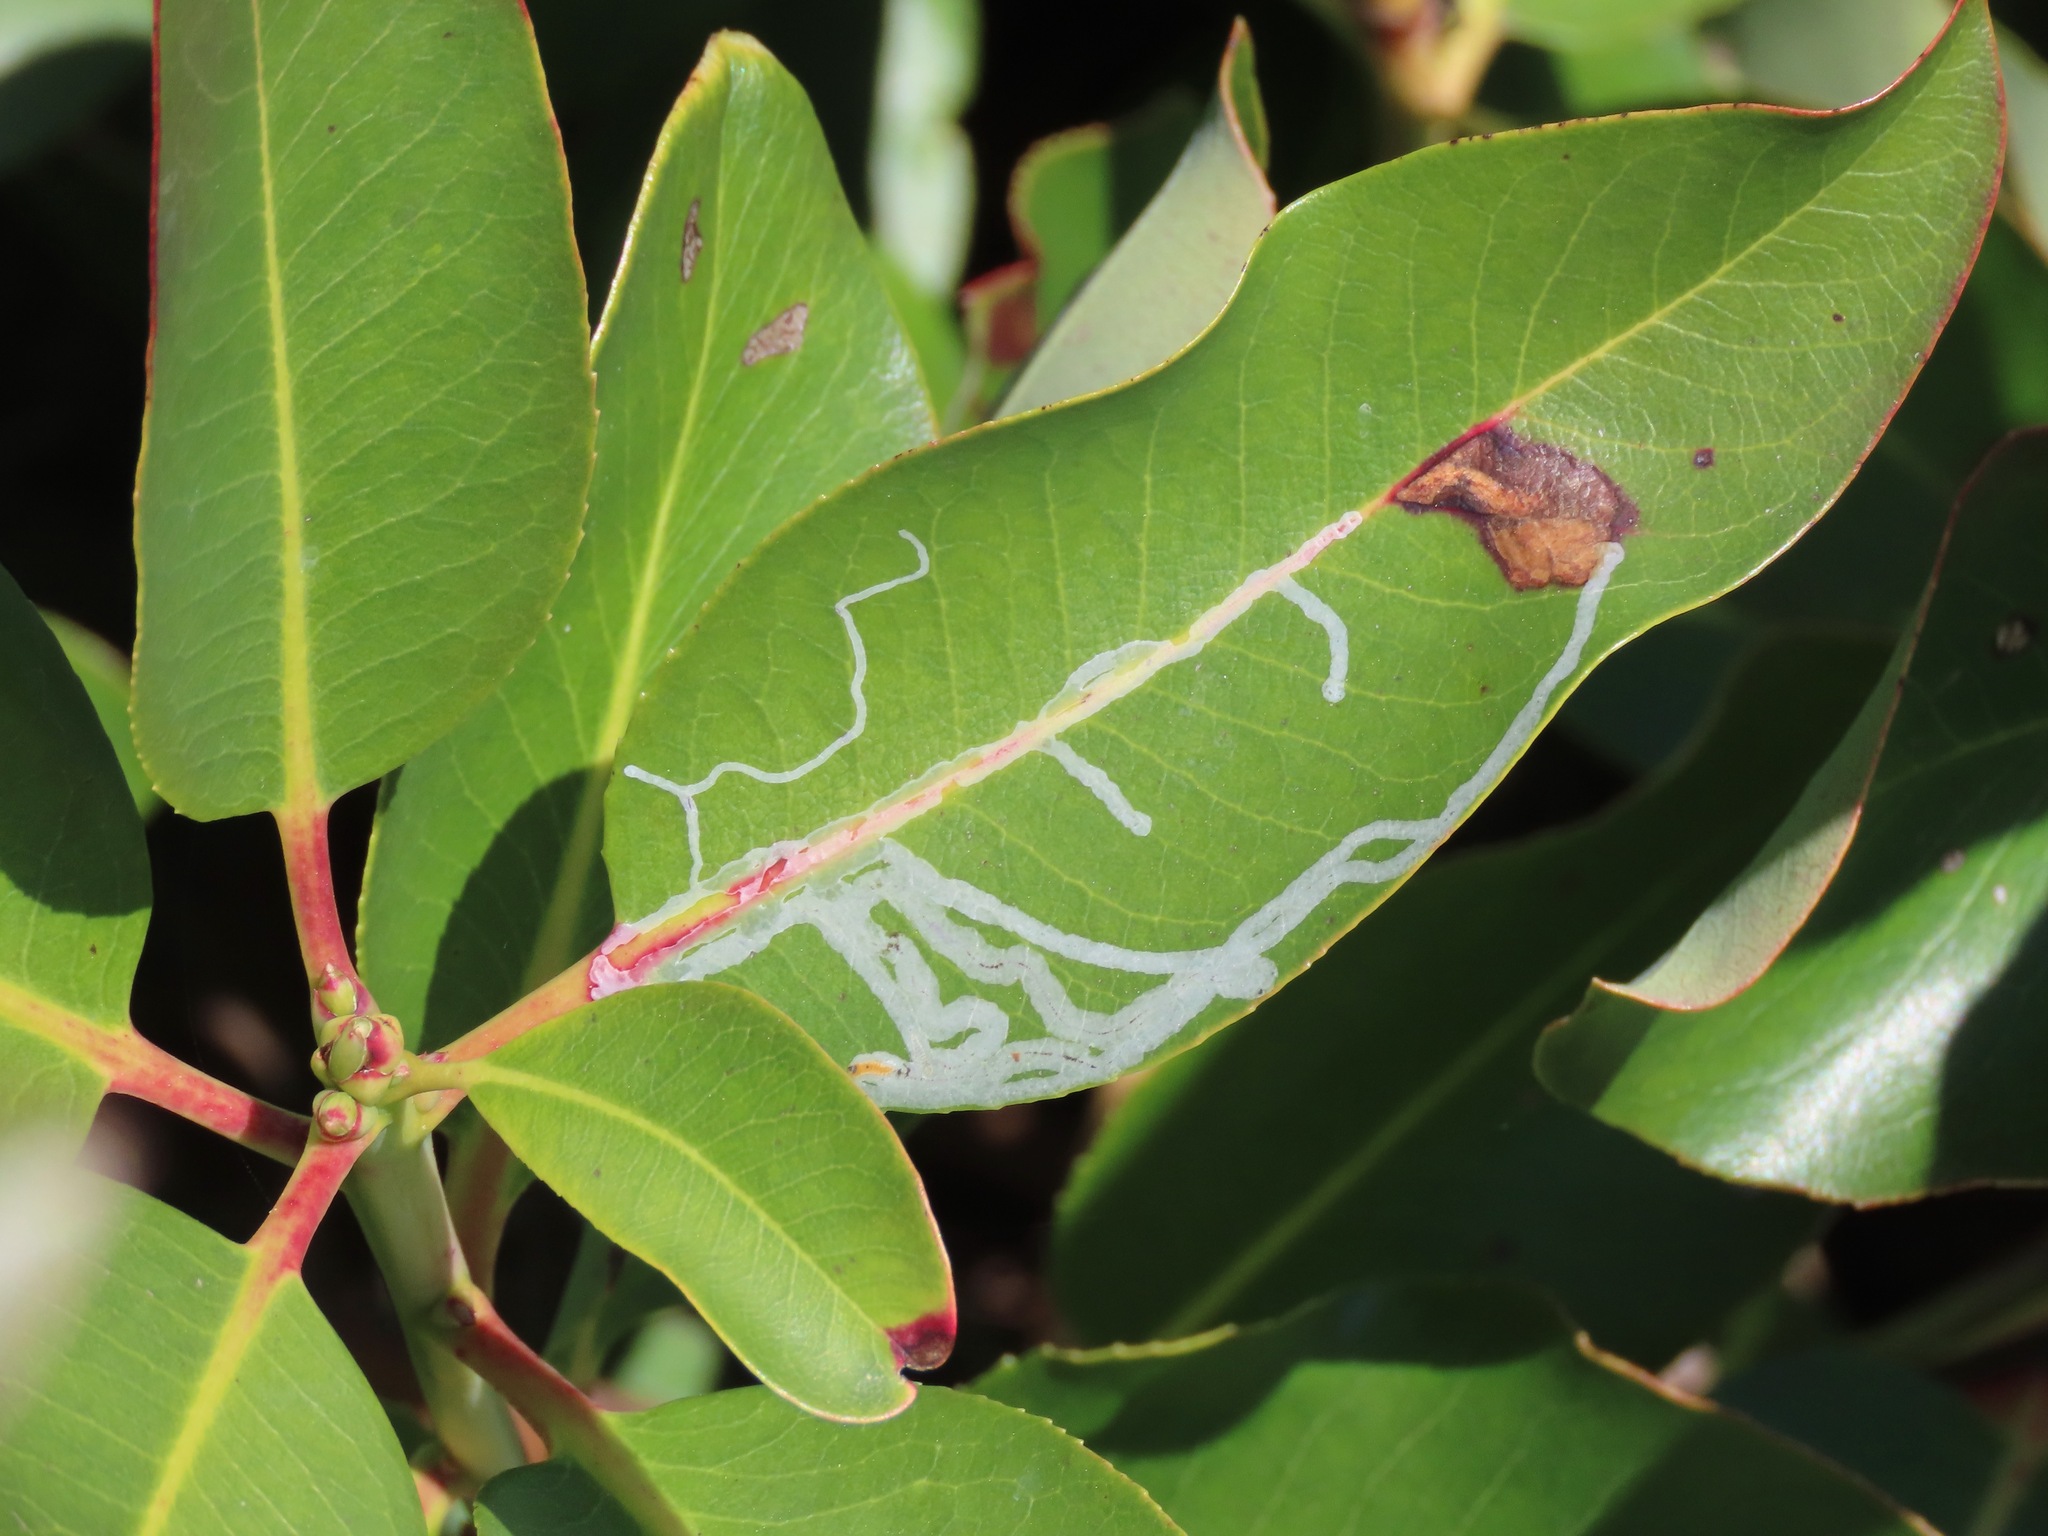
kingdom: Animalia
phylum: Arthropoda
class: Insecta
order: Lepidoptera
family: Gracillariidae
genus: Marmara
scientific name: Marmara arbutiella
